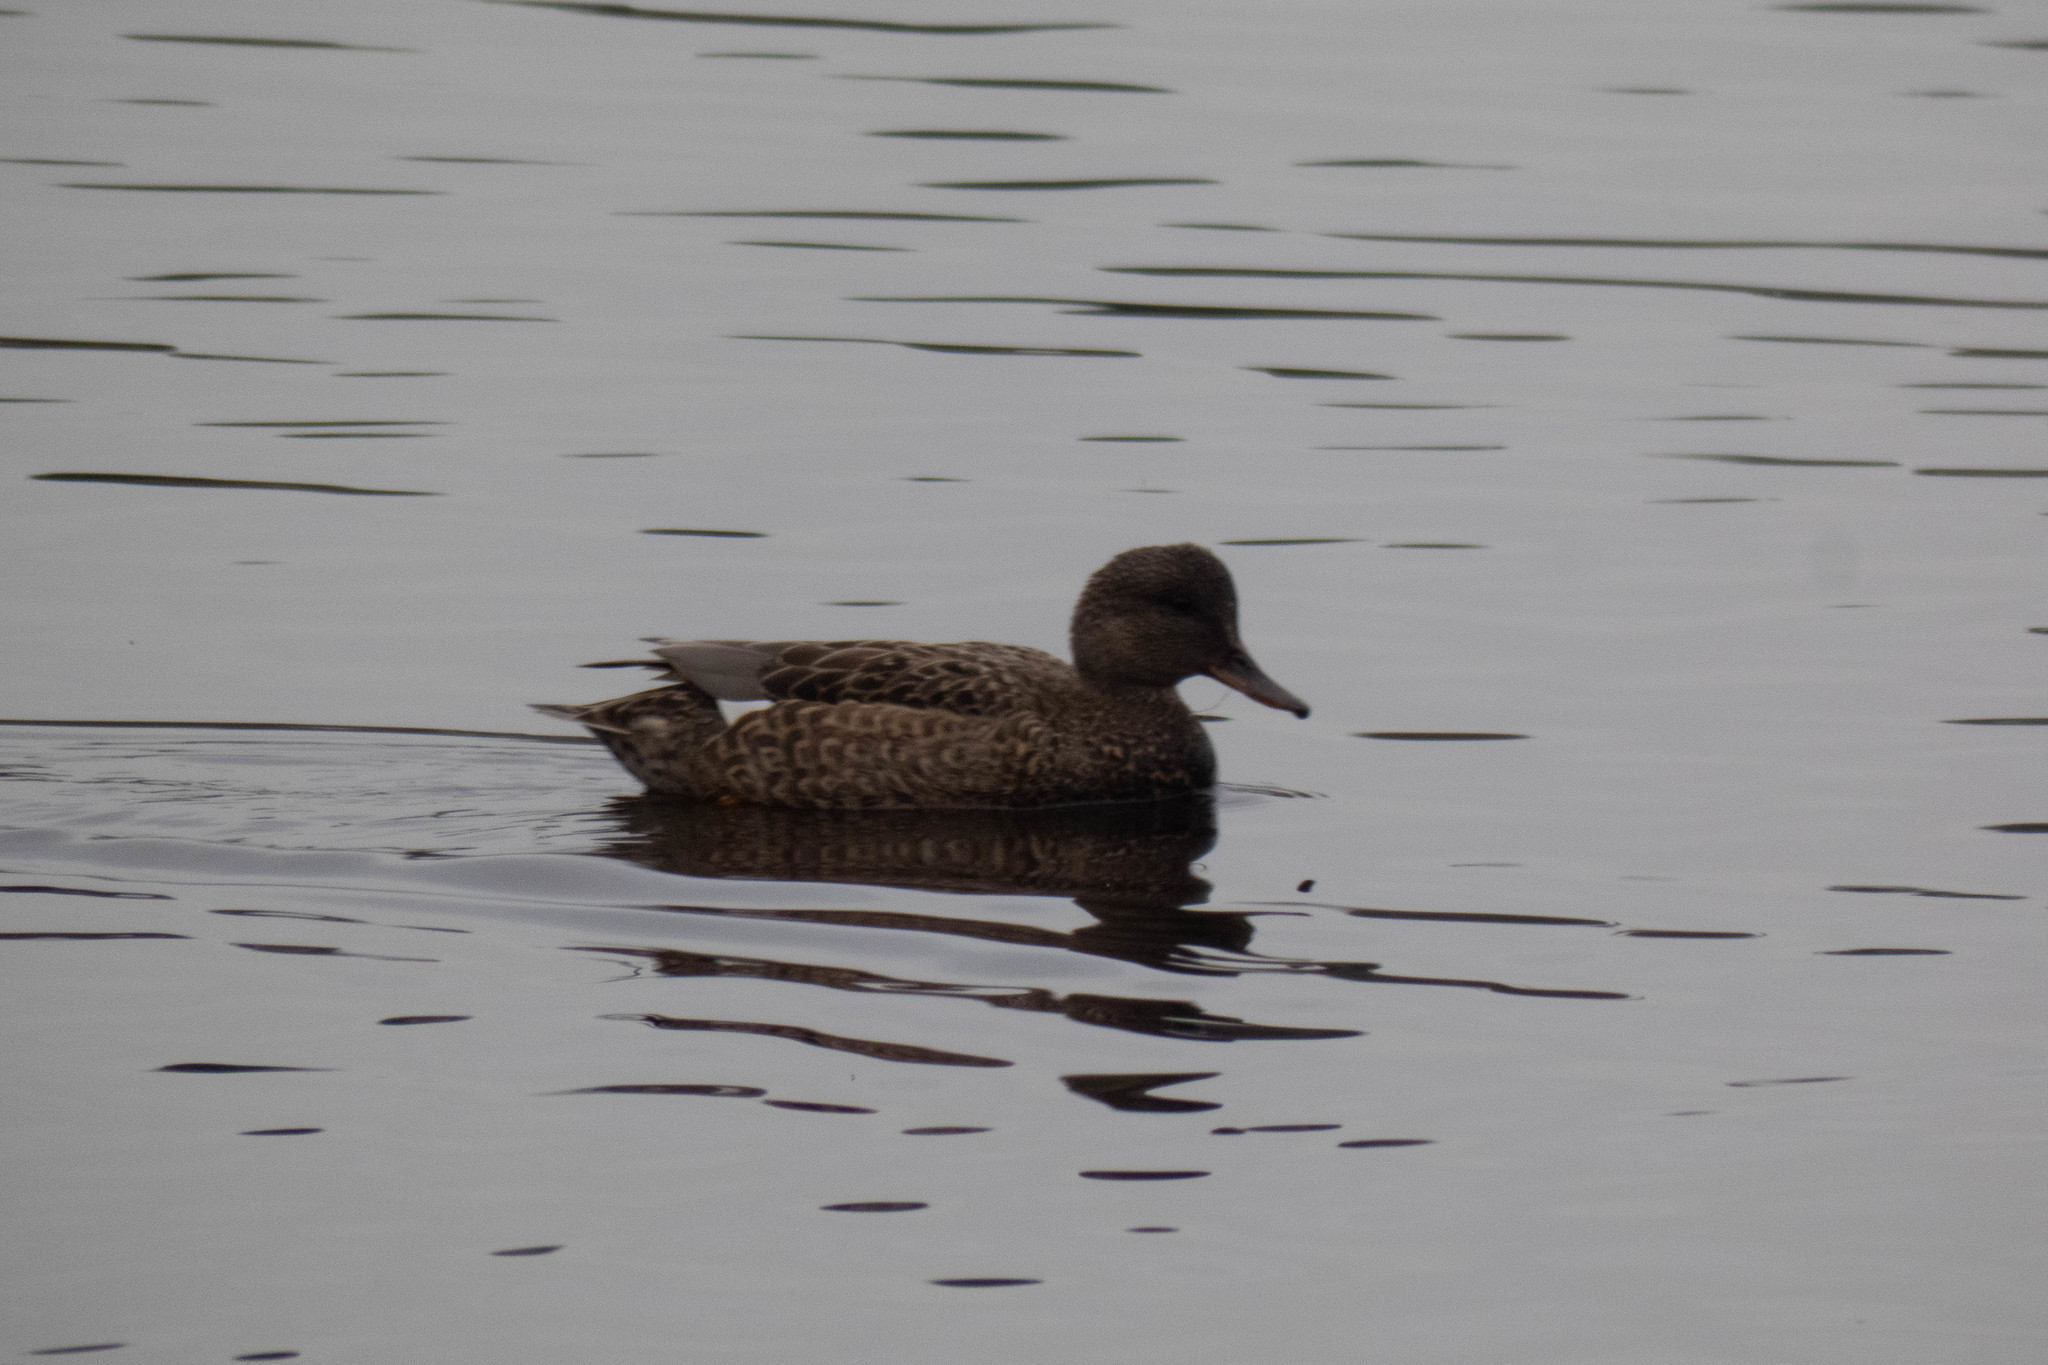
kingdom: Animalia
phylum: Chordata
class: Aves
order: Anseriformes
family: Anatidae
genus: Mareca
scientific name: Mareca strepera
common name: Gadwall
